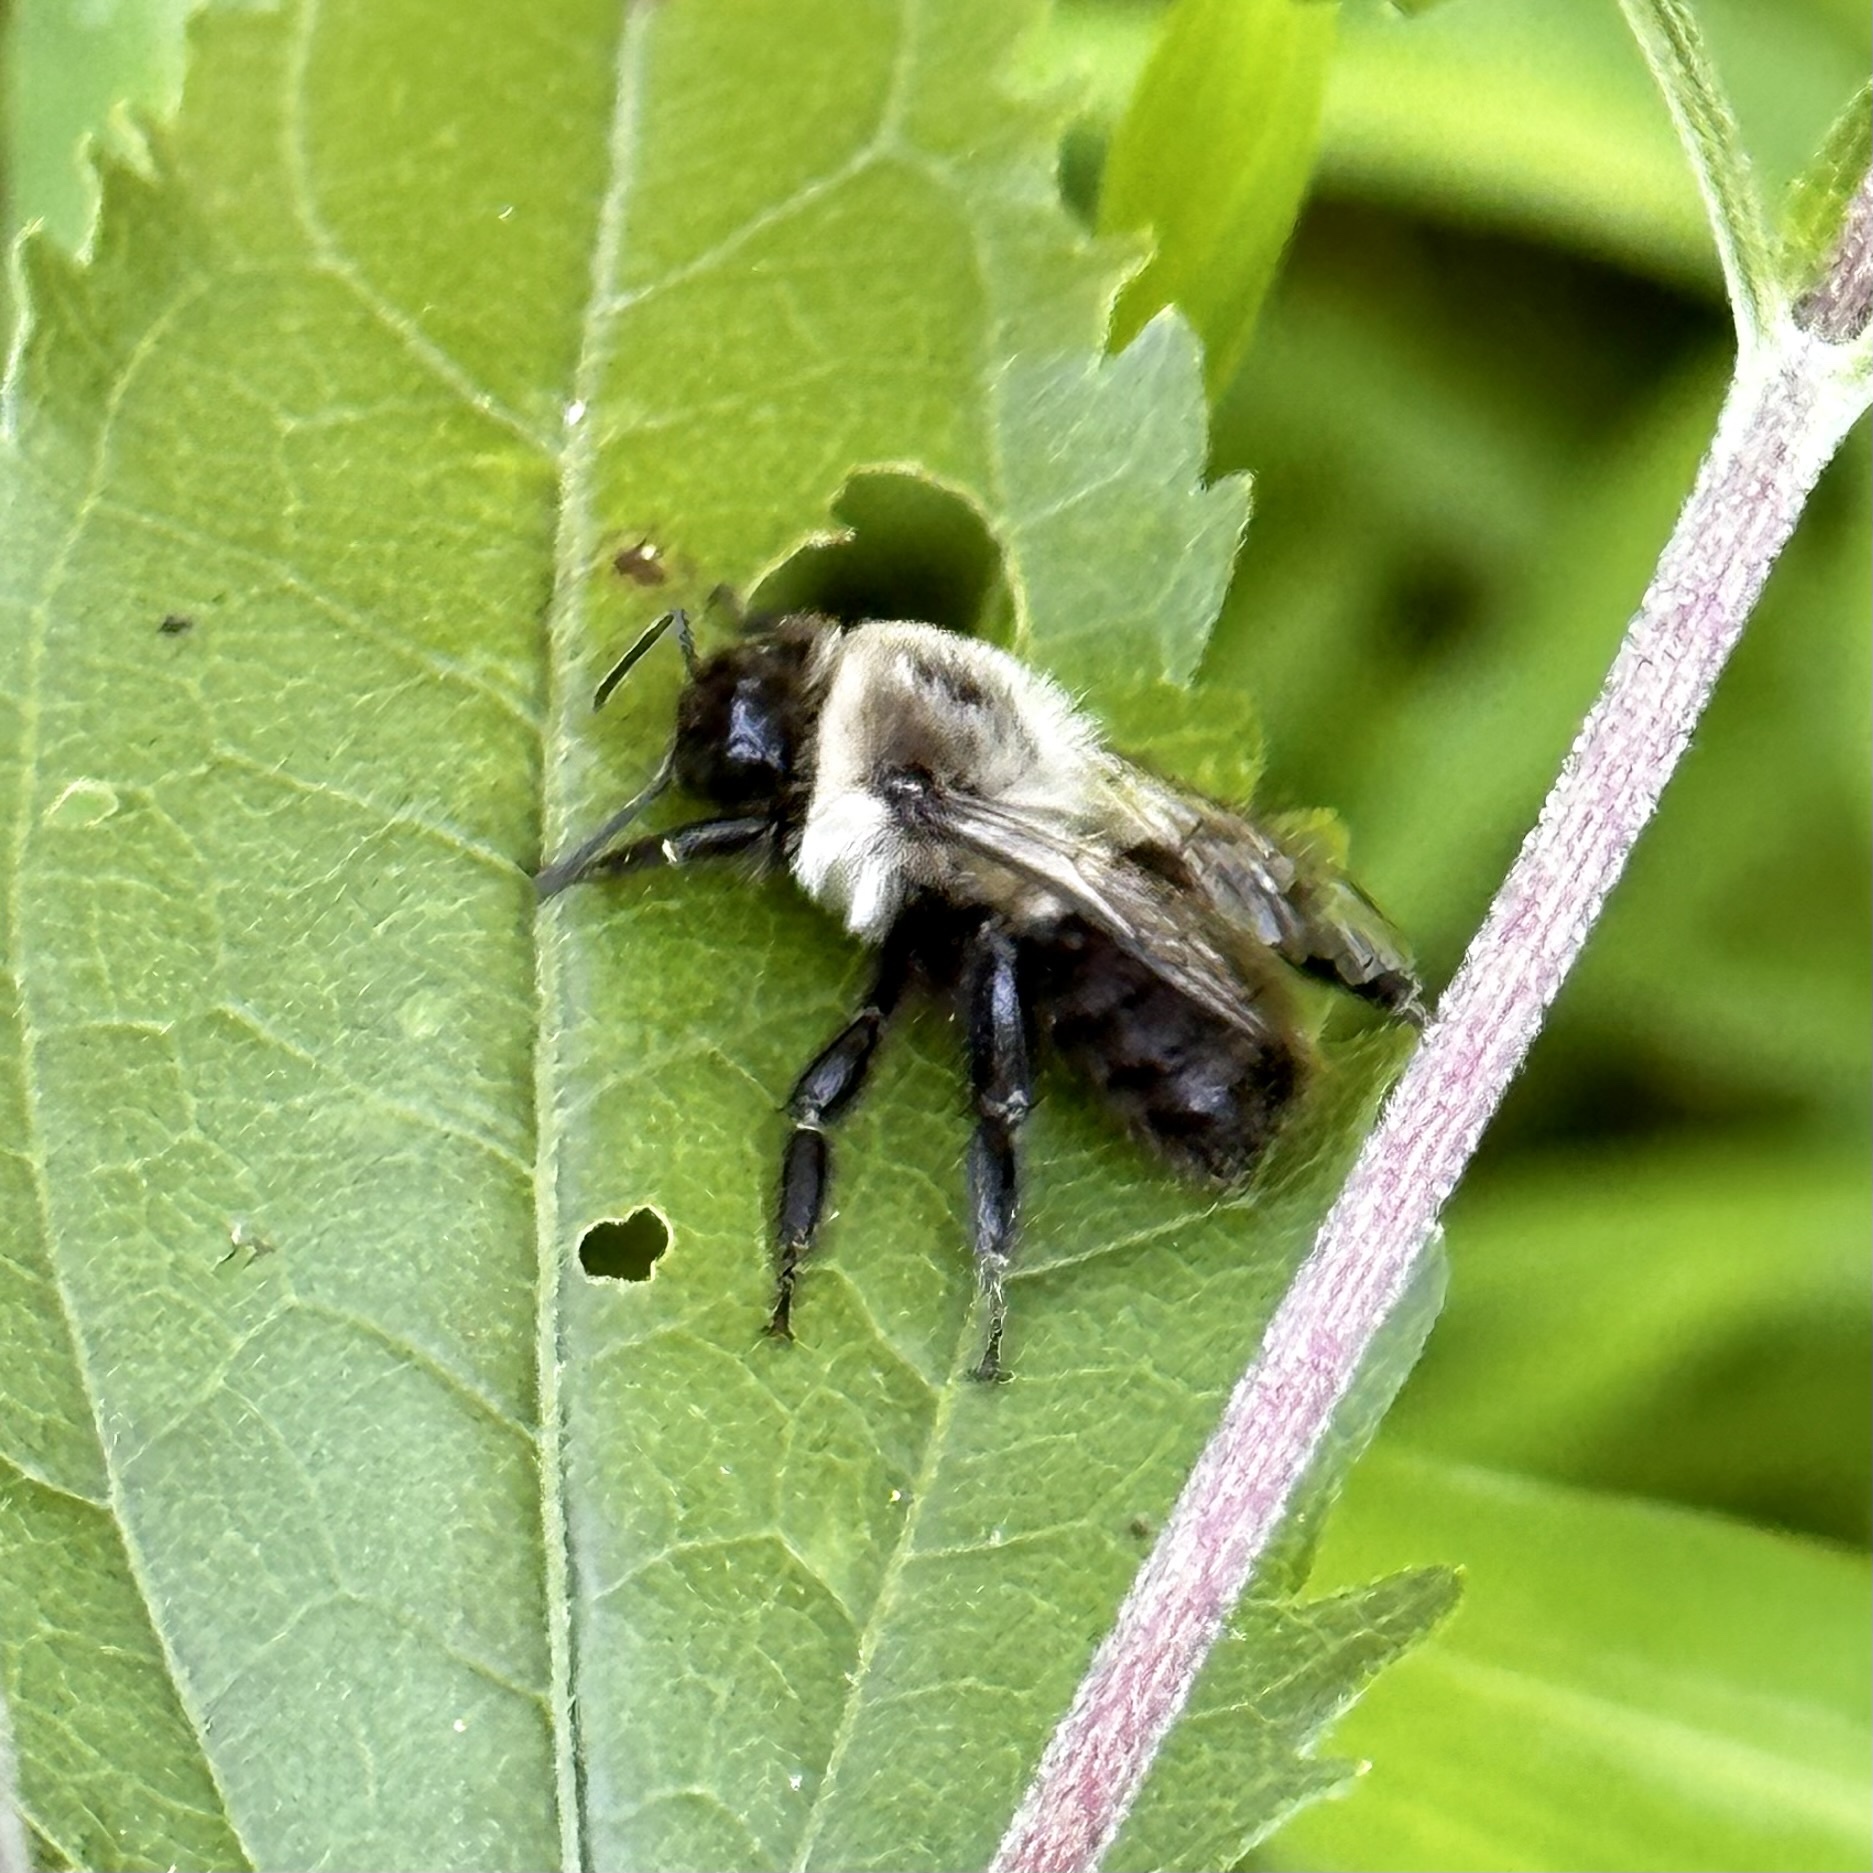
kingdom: Animalia
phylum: Arthropoda
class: Insecta
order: Hymenoptera
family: Apidae
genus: Bombus
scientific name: Bombus impatiens
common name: Common eastern bumble bee
